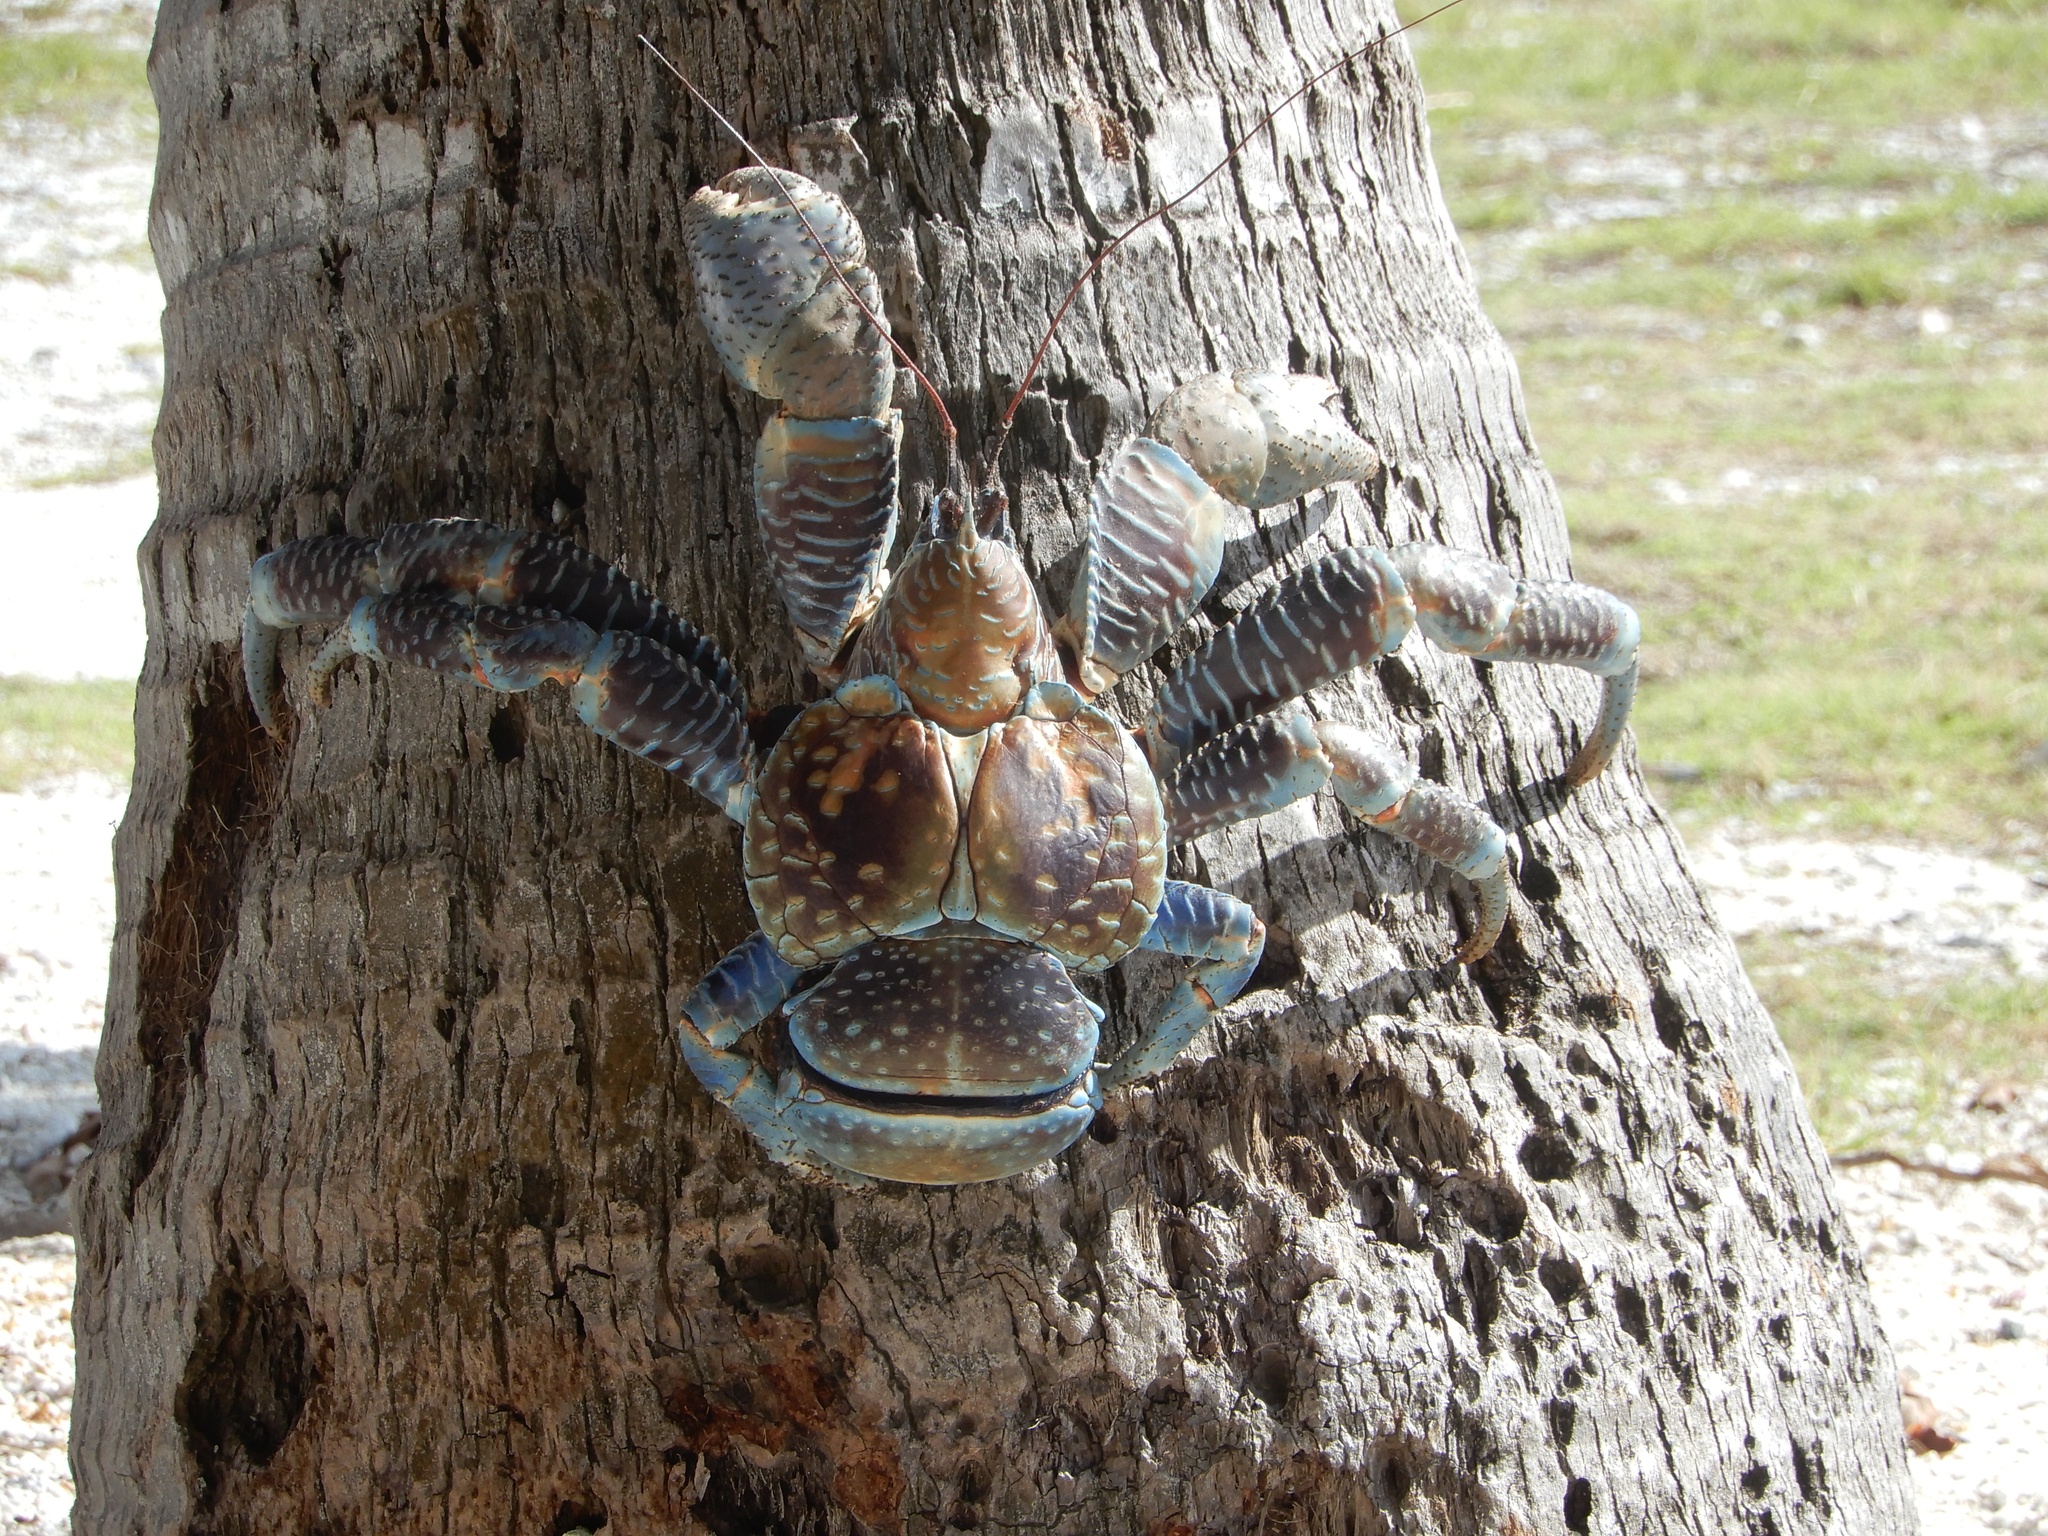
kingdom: Animalia
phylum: Arthropoda
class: Malacostraca
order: Decapoda
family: Coenobitidae
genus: Birgus
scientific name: Birgus latro
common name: Coconut crab
